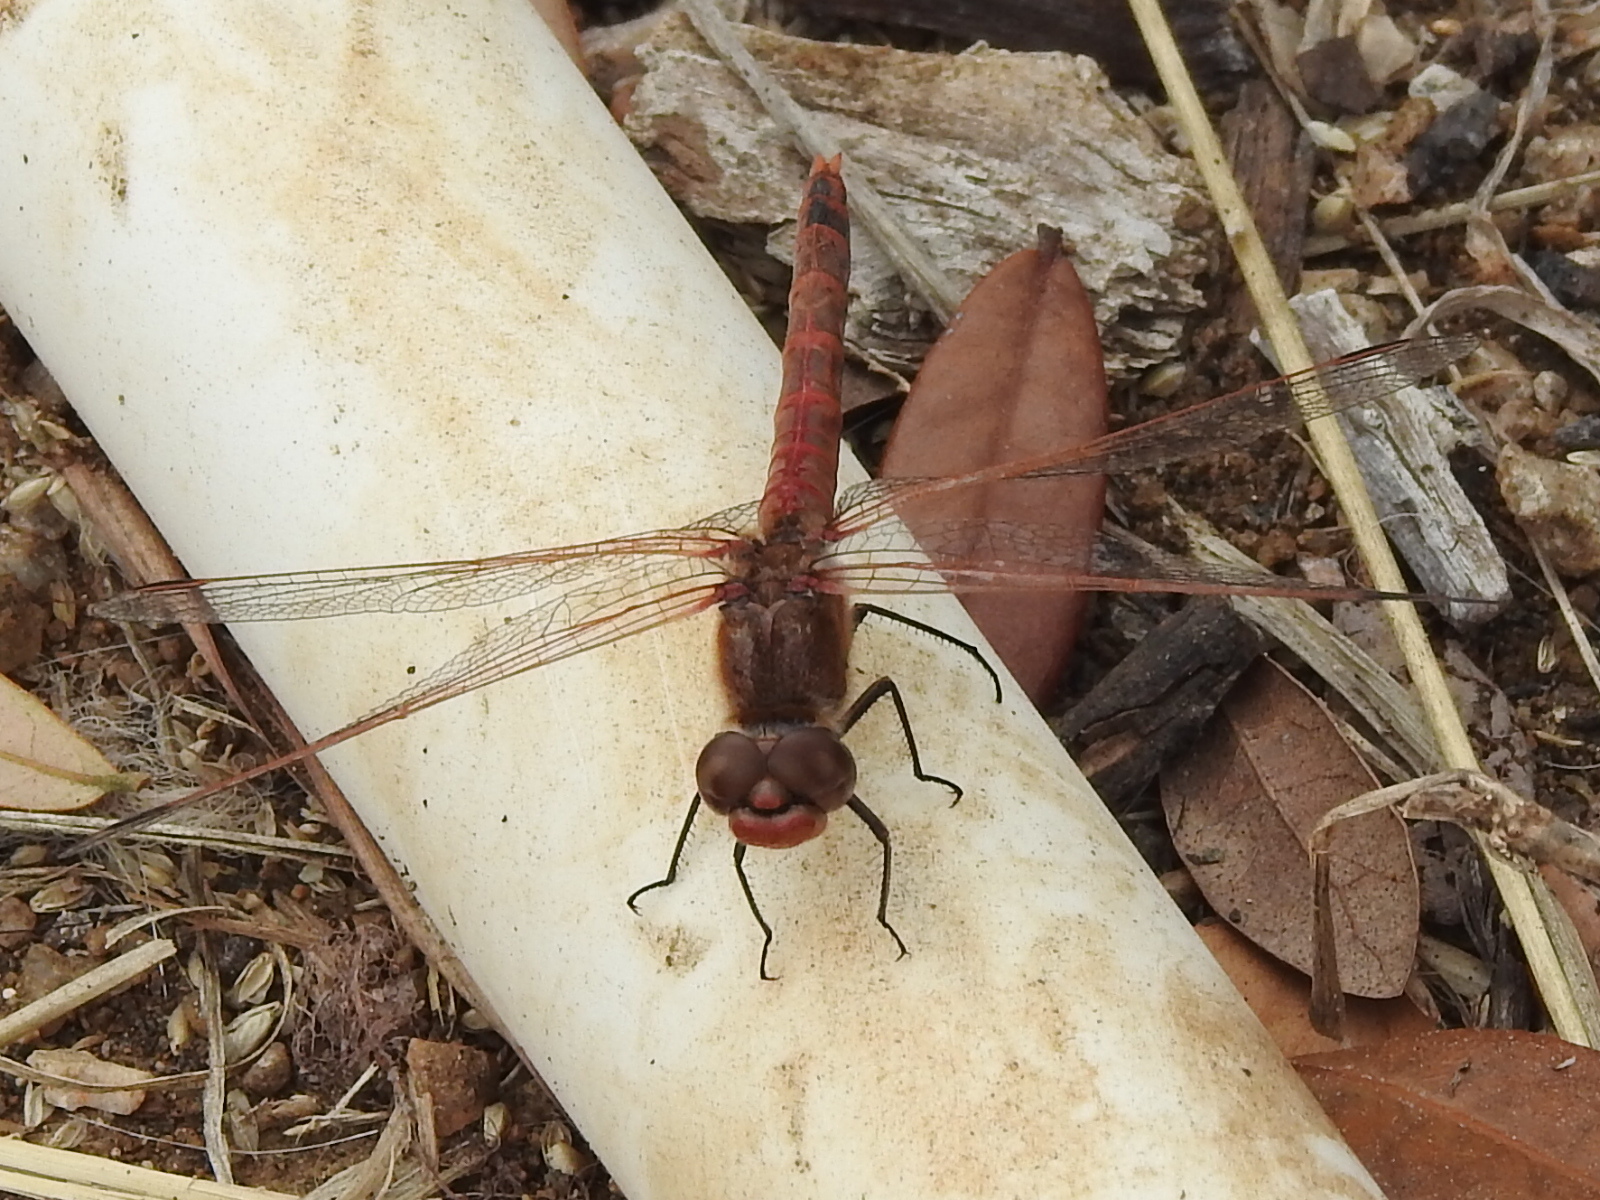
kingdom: Animalia
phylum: Arthropoda
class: Insecta
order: Odonata
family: Libellulidae
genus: Sympetrum
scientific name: Sympetrum corruptum
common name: Variegated meadowhawk
